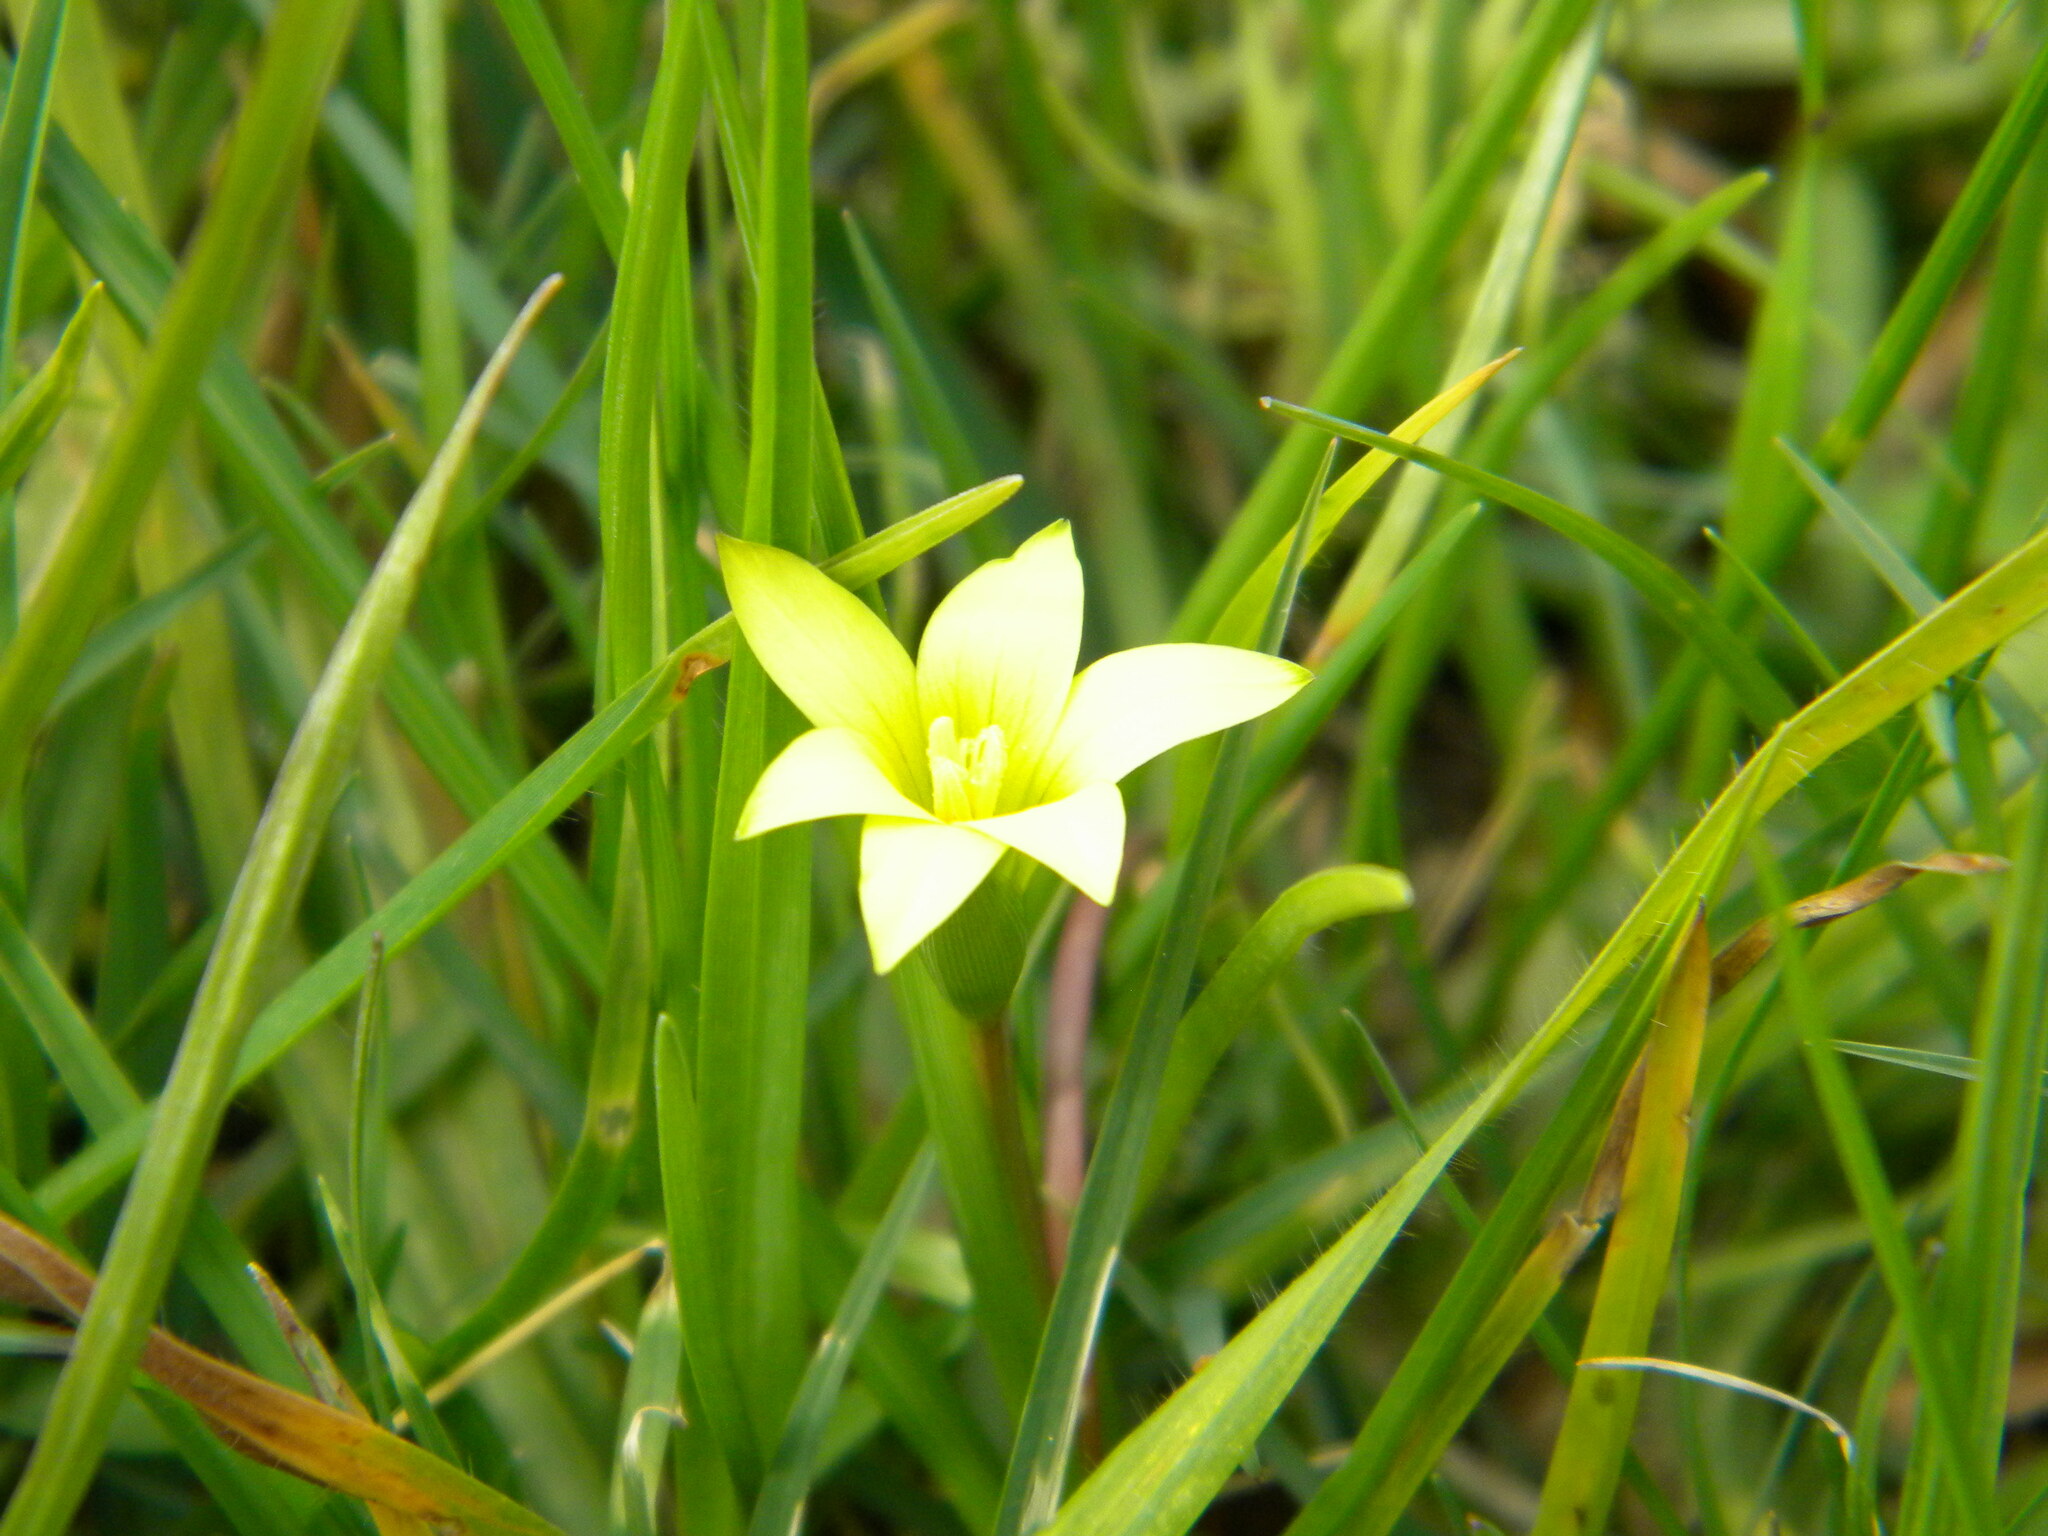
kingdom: Plantae
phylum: Tracheophyta
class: Liliopsida
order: Asparagales
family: Iridaceae
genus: Romulea
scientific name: Romulea flava
